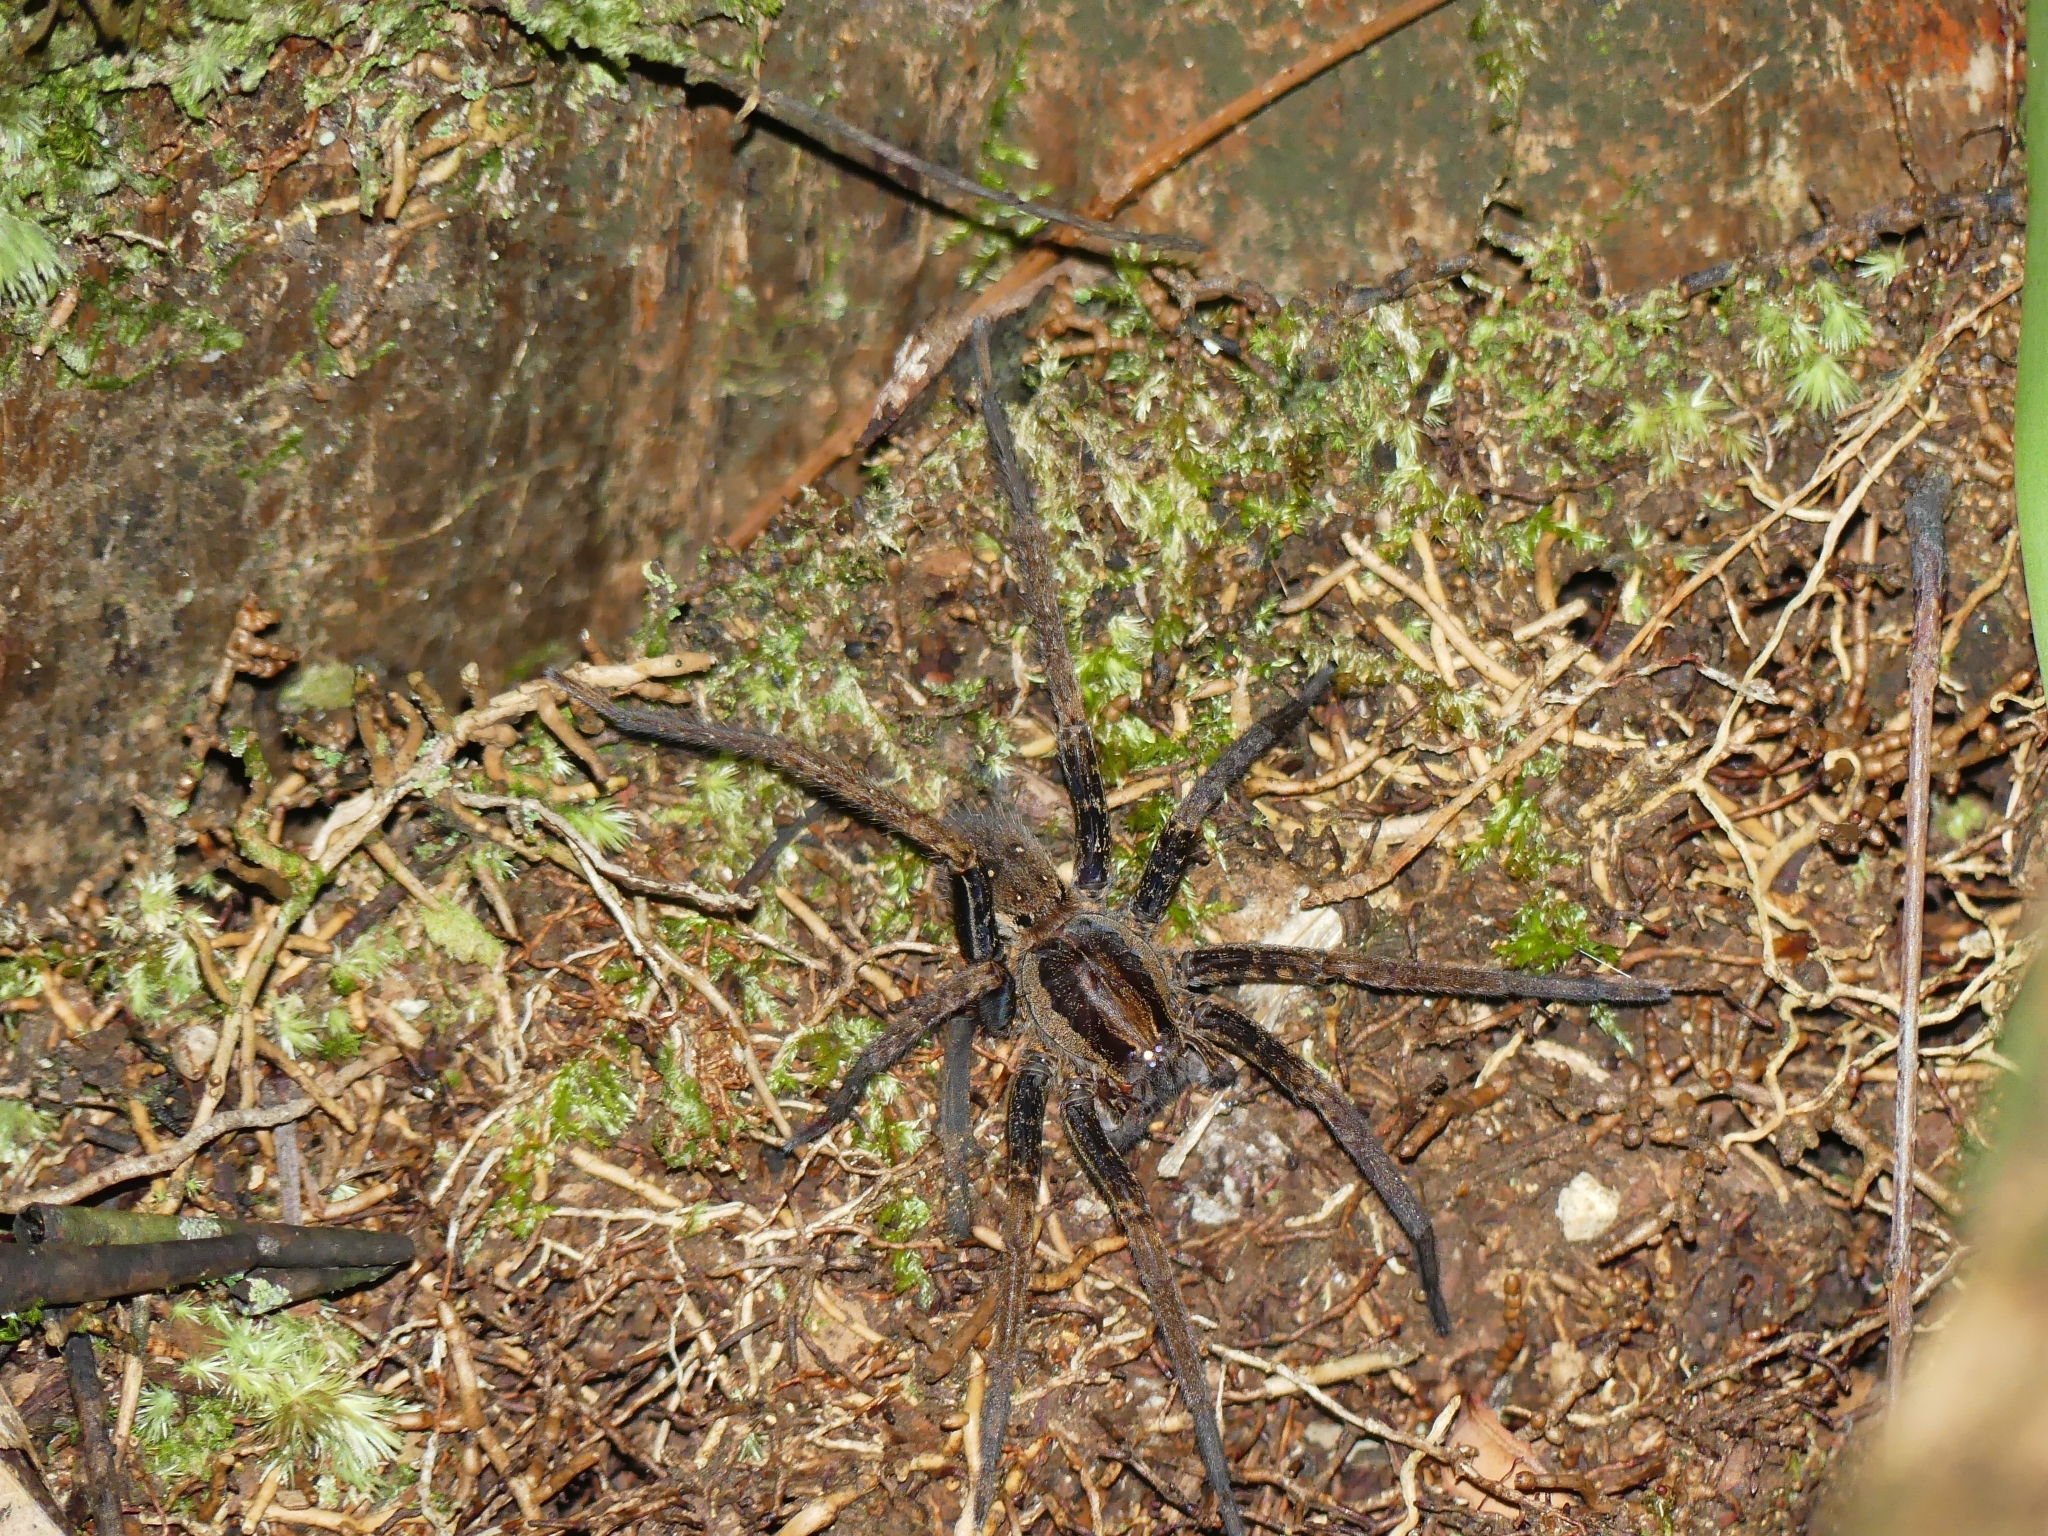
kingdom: Animalia
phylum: Arthropoda
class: Arachnida
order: Araneae
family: Ctenidae
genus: Ancylometes
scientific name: Ancylometes
